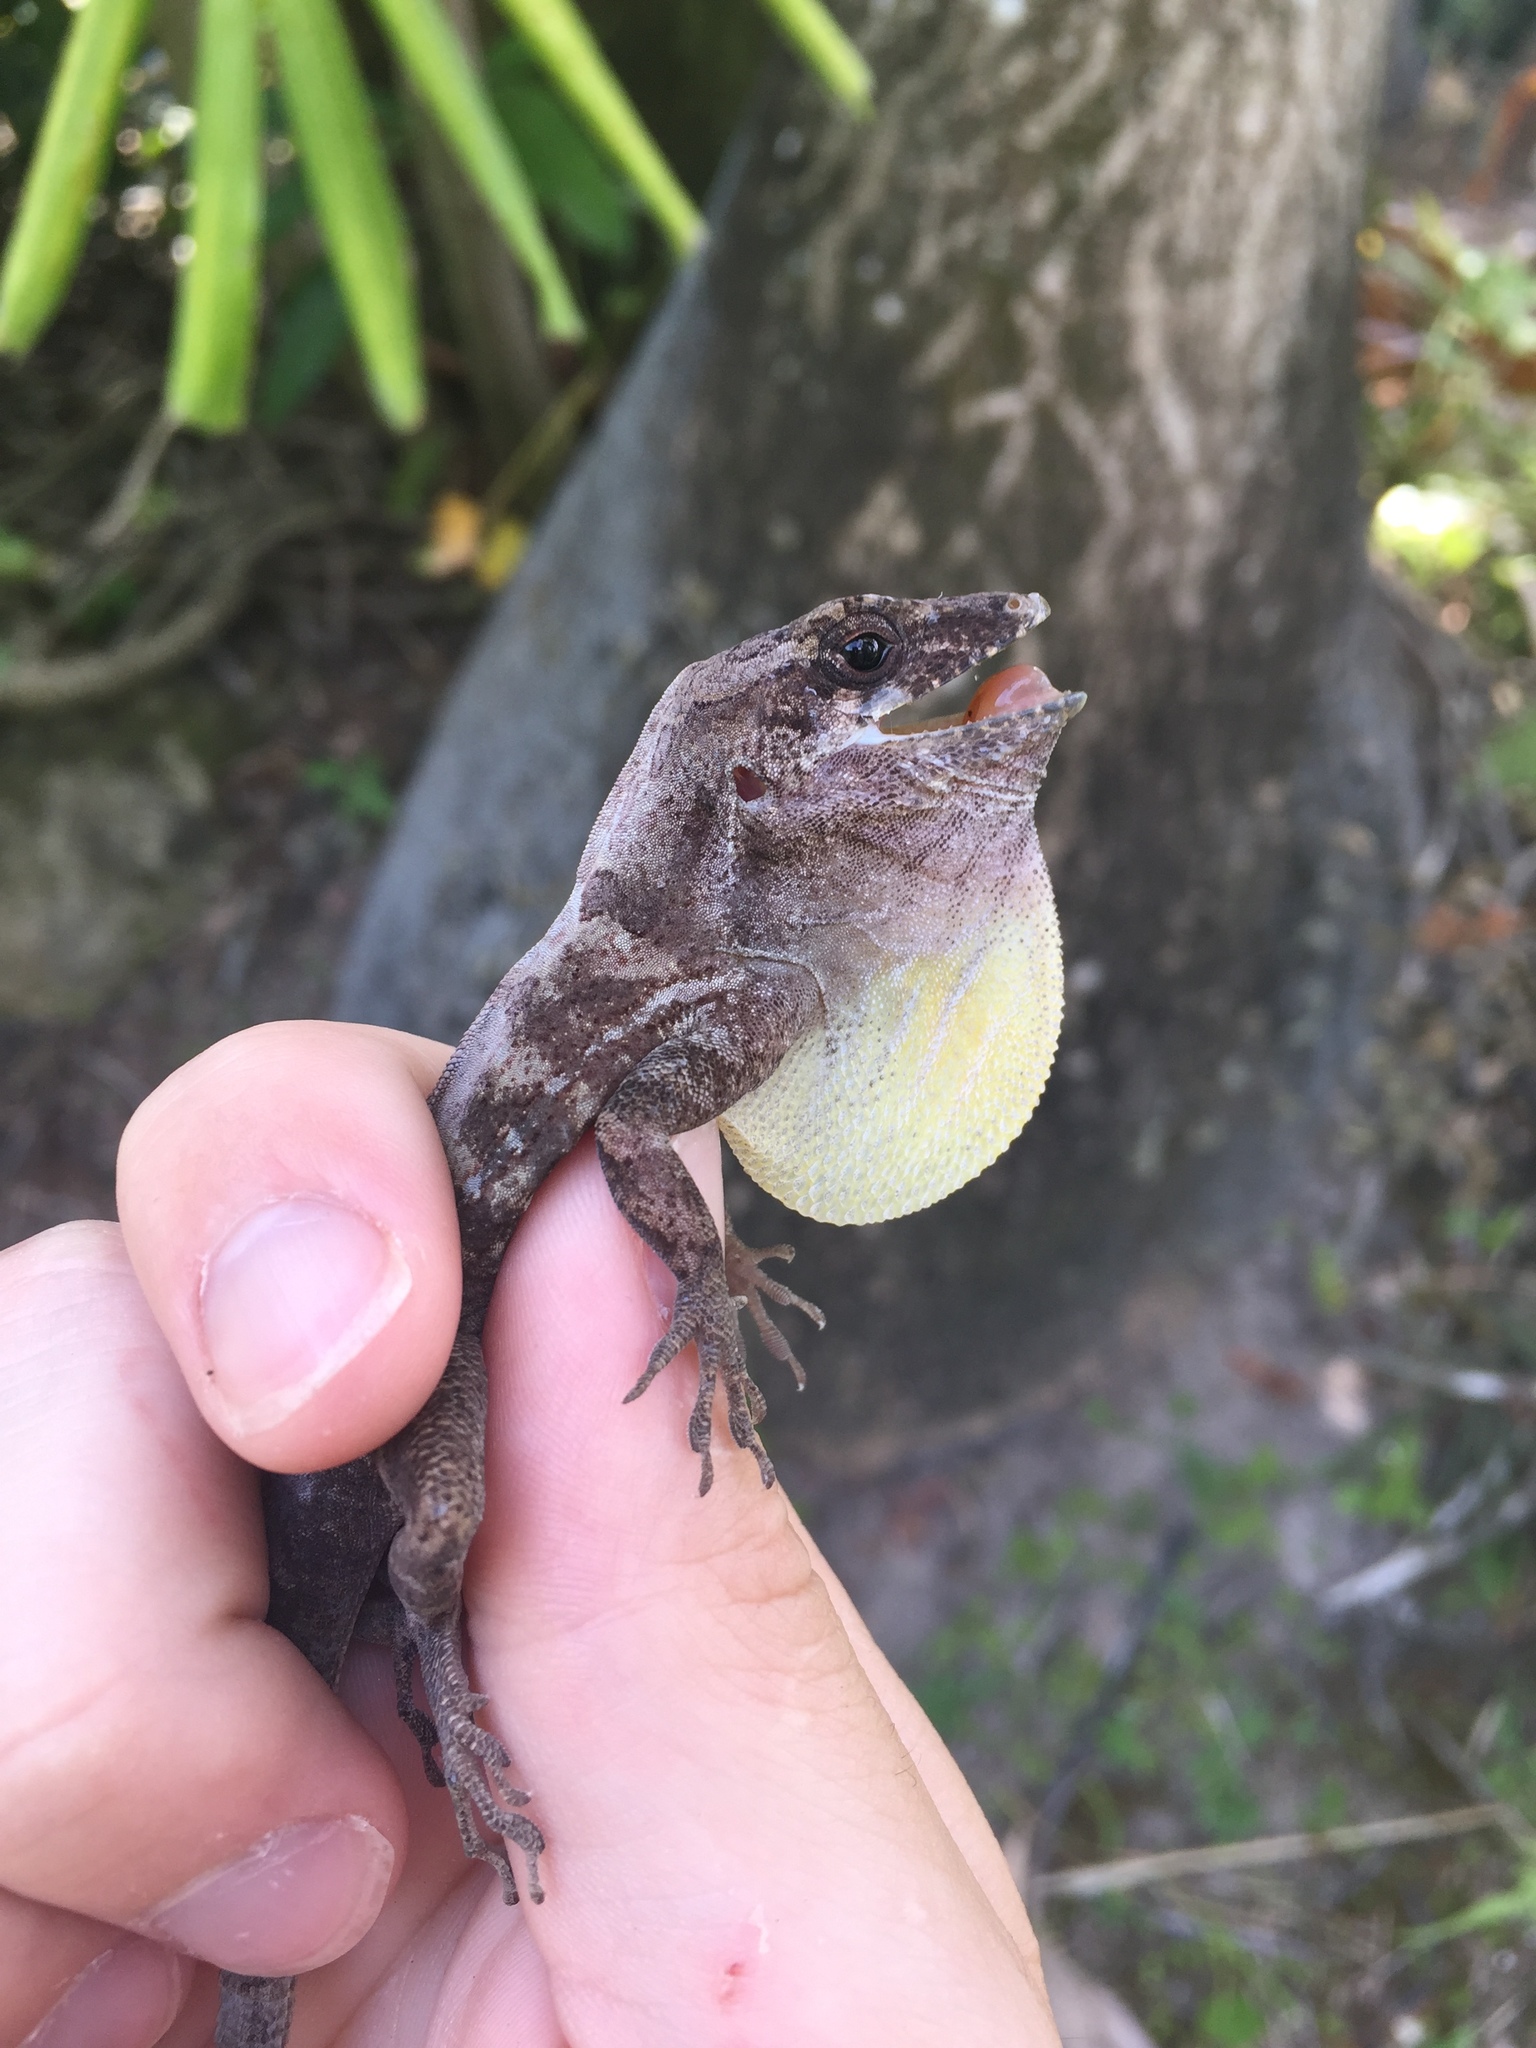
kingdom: Animalia
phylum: Chordata
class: Squamata
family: Dactyloidae
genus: Anolis
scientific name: Anolis cybotes
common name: Large-headed anole
